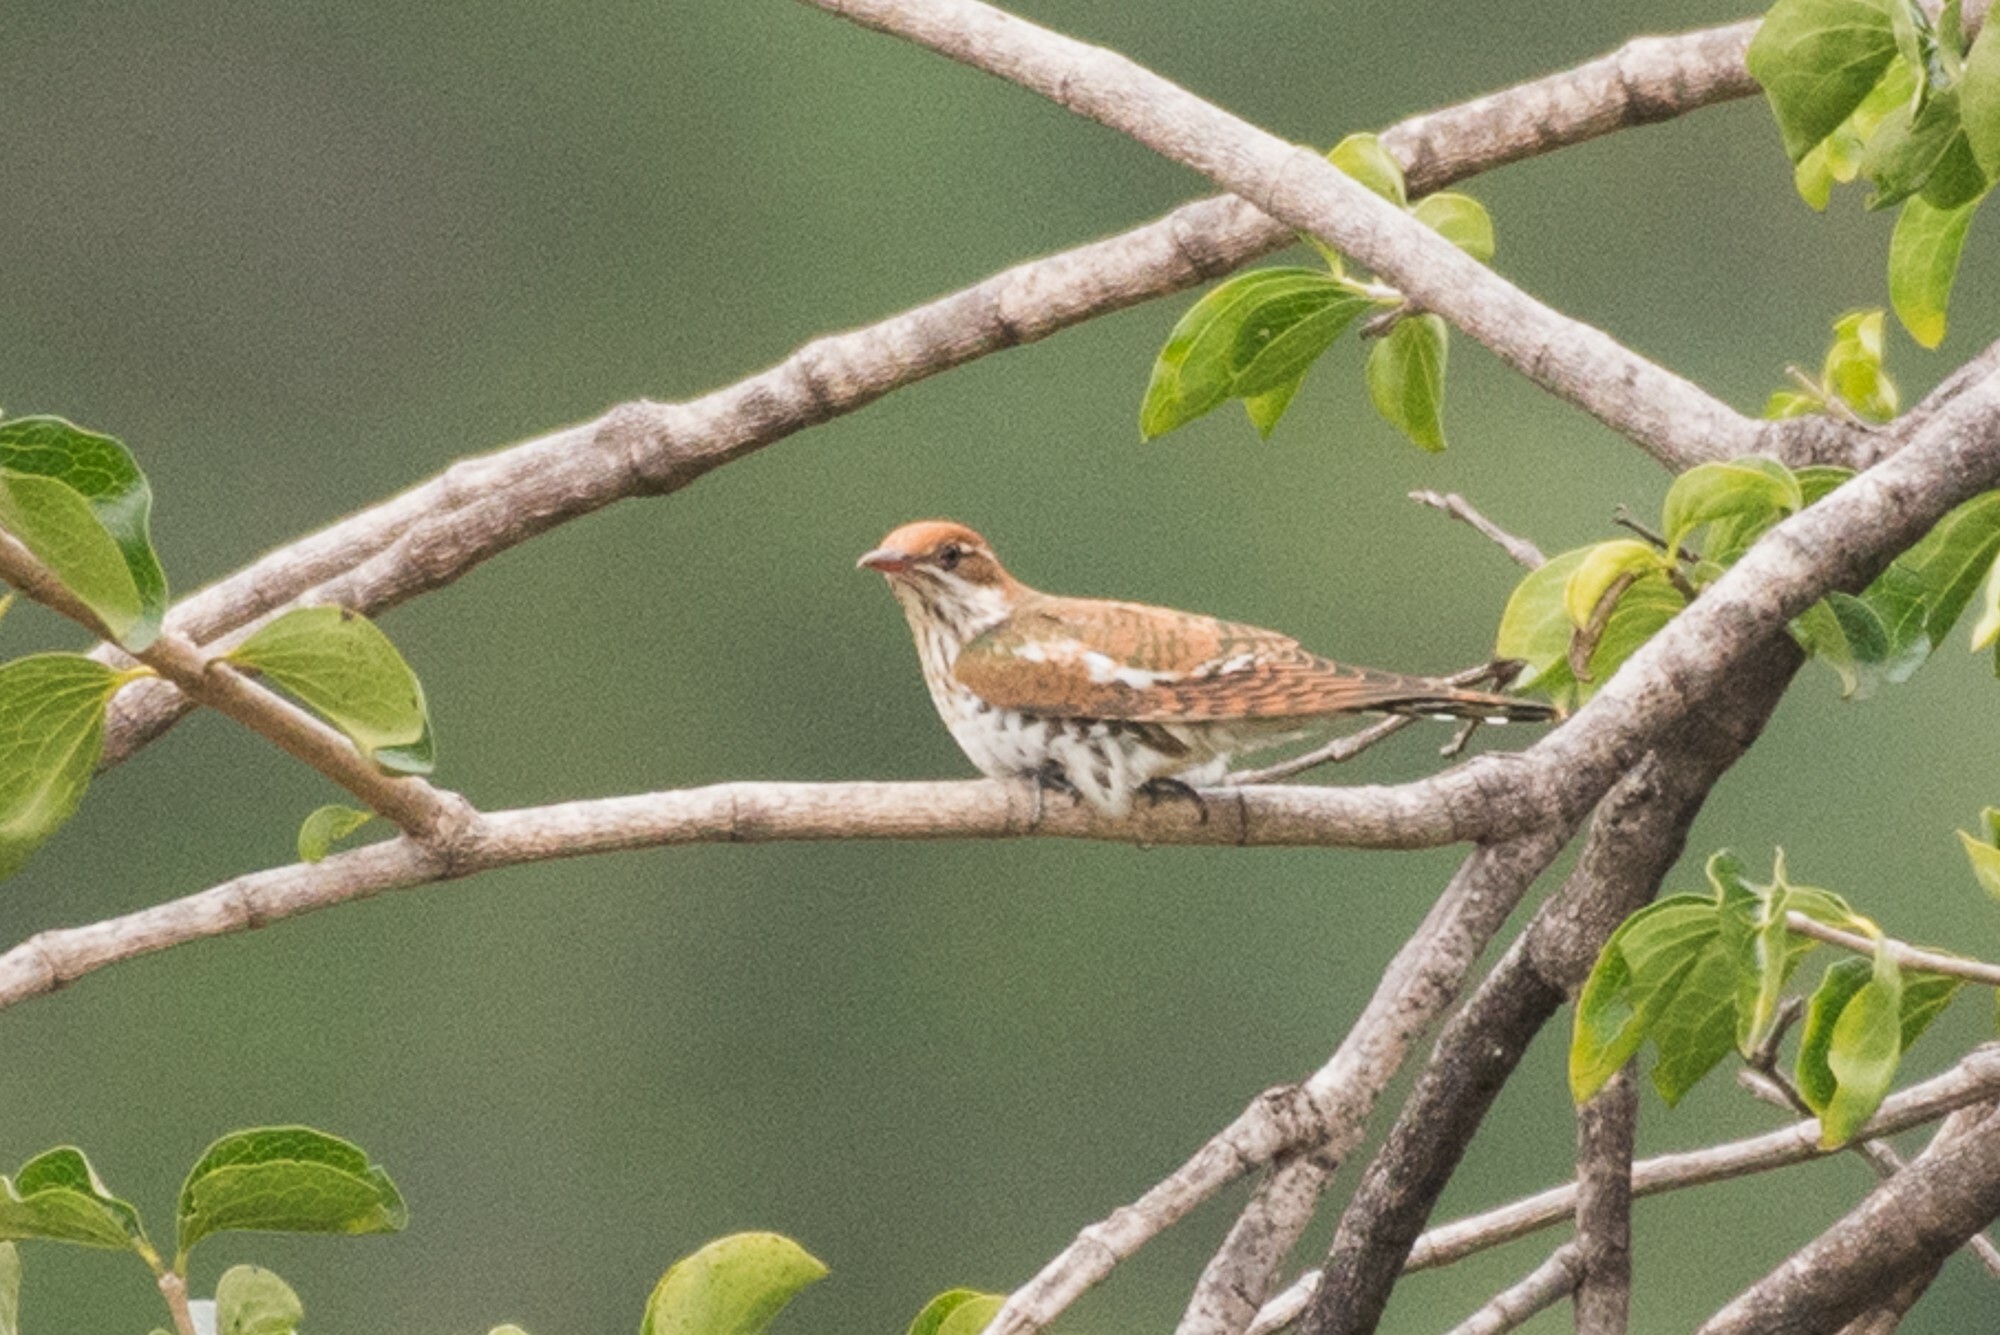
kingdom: Animalia
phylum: Chordata
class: Aves
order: Cuculiformes
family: Cuculidae
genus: Chrysococcyx
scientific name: Chrysococcyx caprius
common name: Diederik cuckoo
